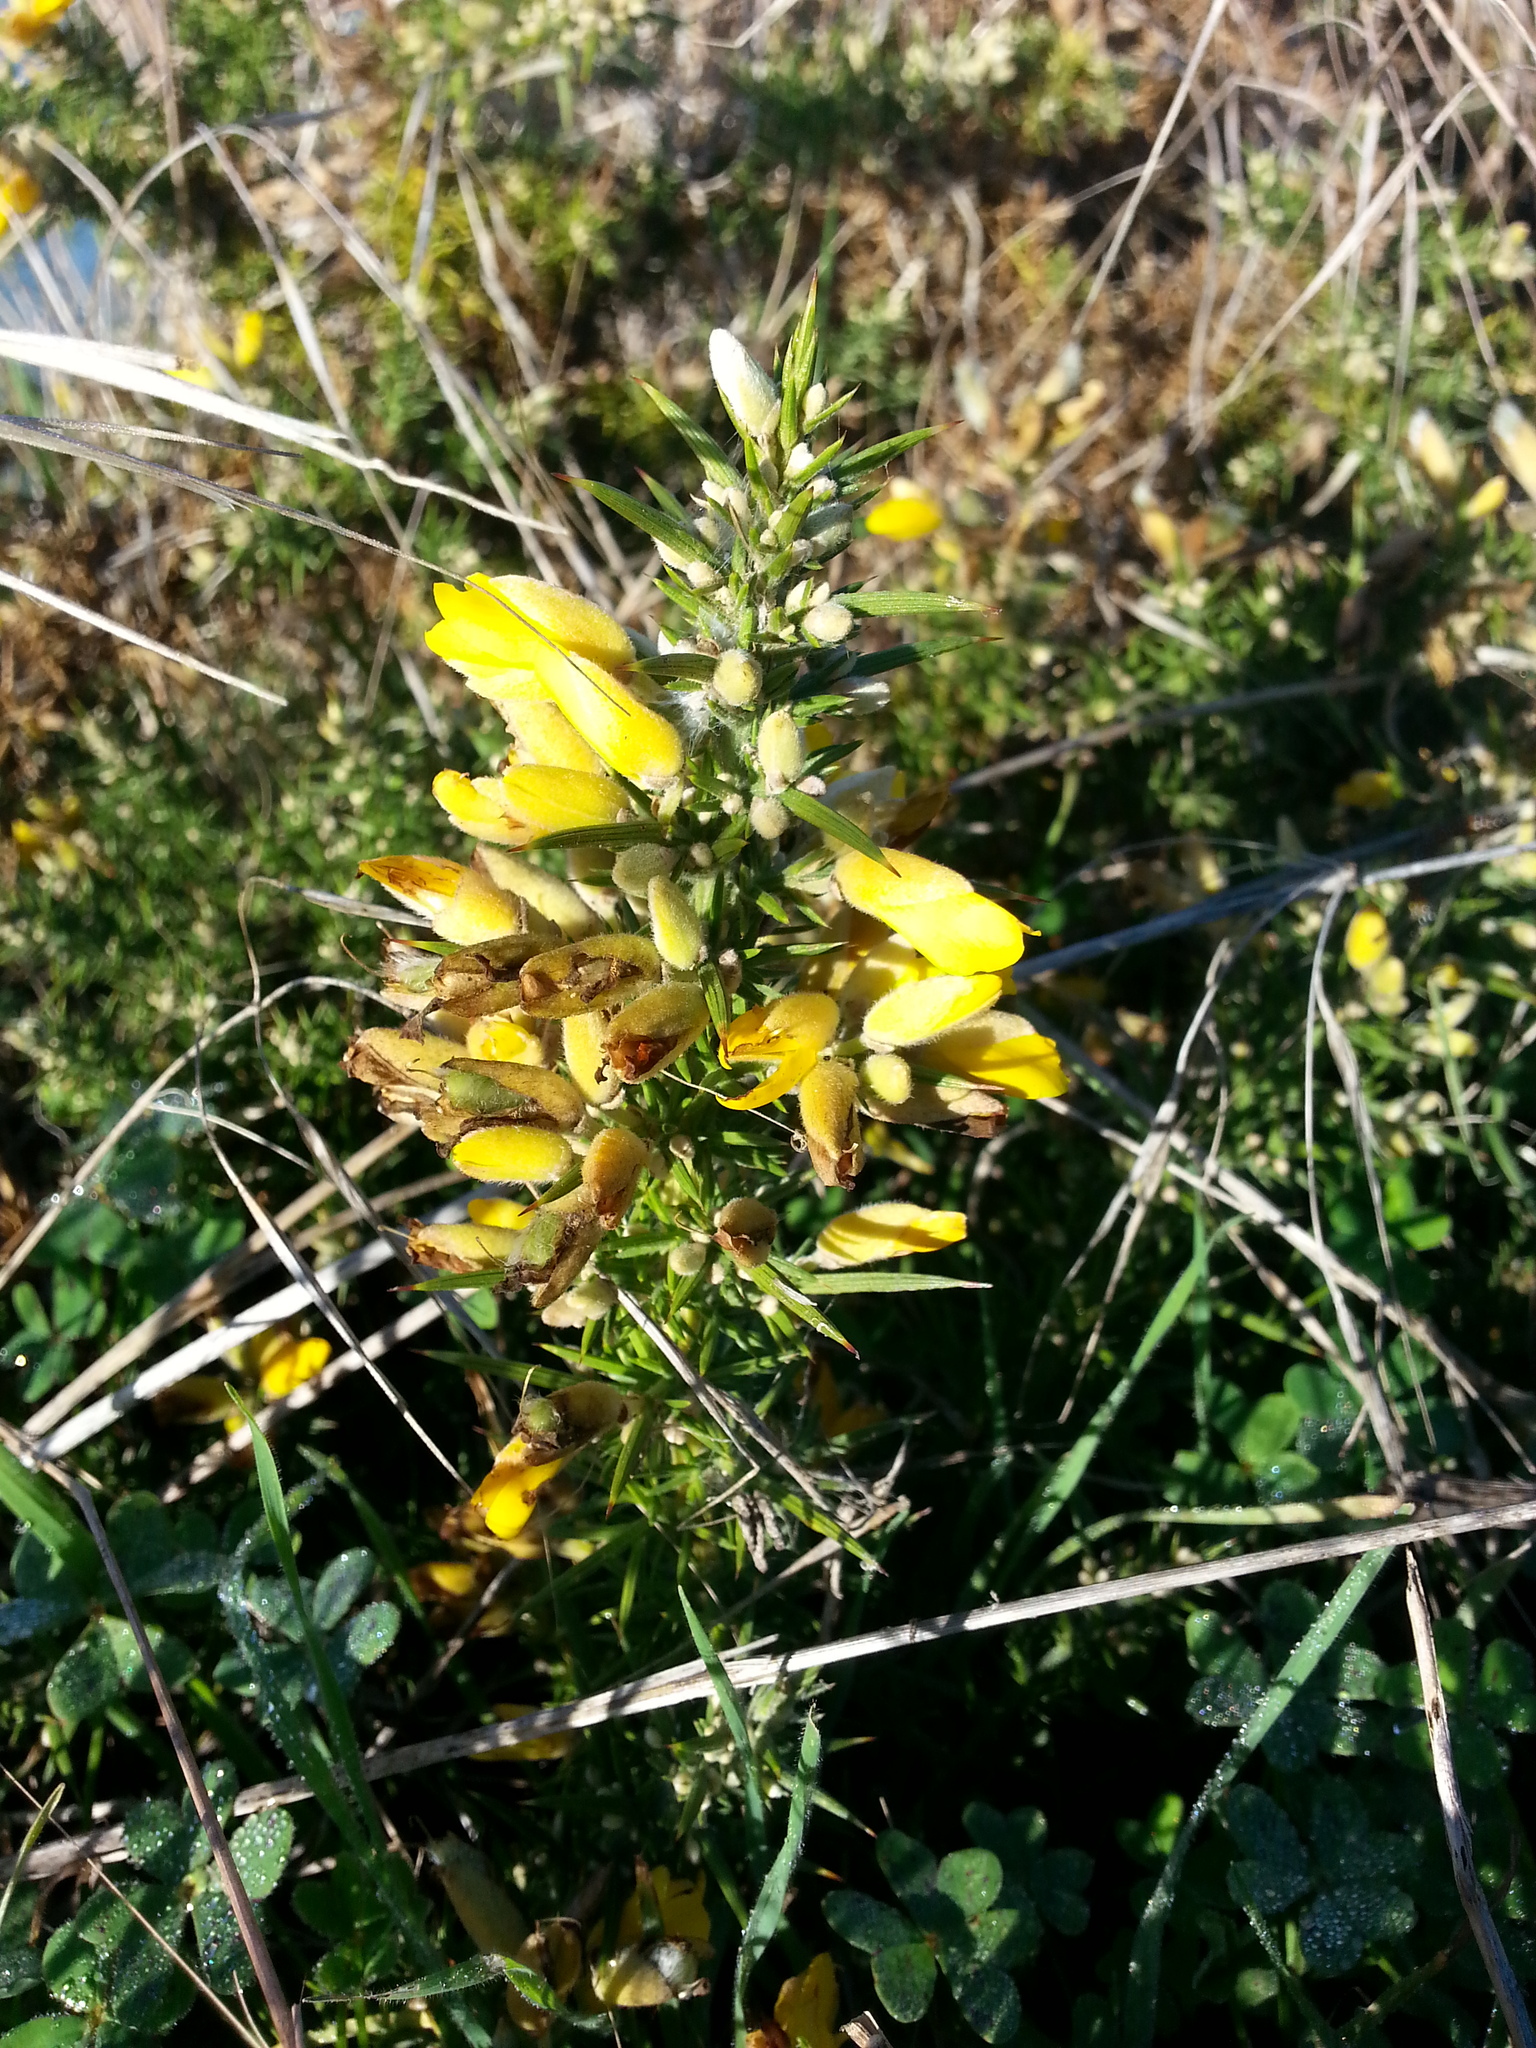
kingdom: Plantae
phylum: Tracheophyta
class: Magnoliopsida
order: Fabales
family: Fabaceae
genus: Ulex
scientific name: Ulex europaeus
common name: Common gorse
